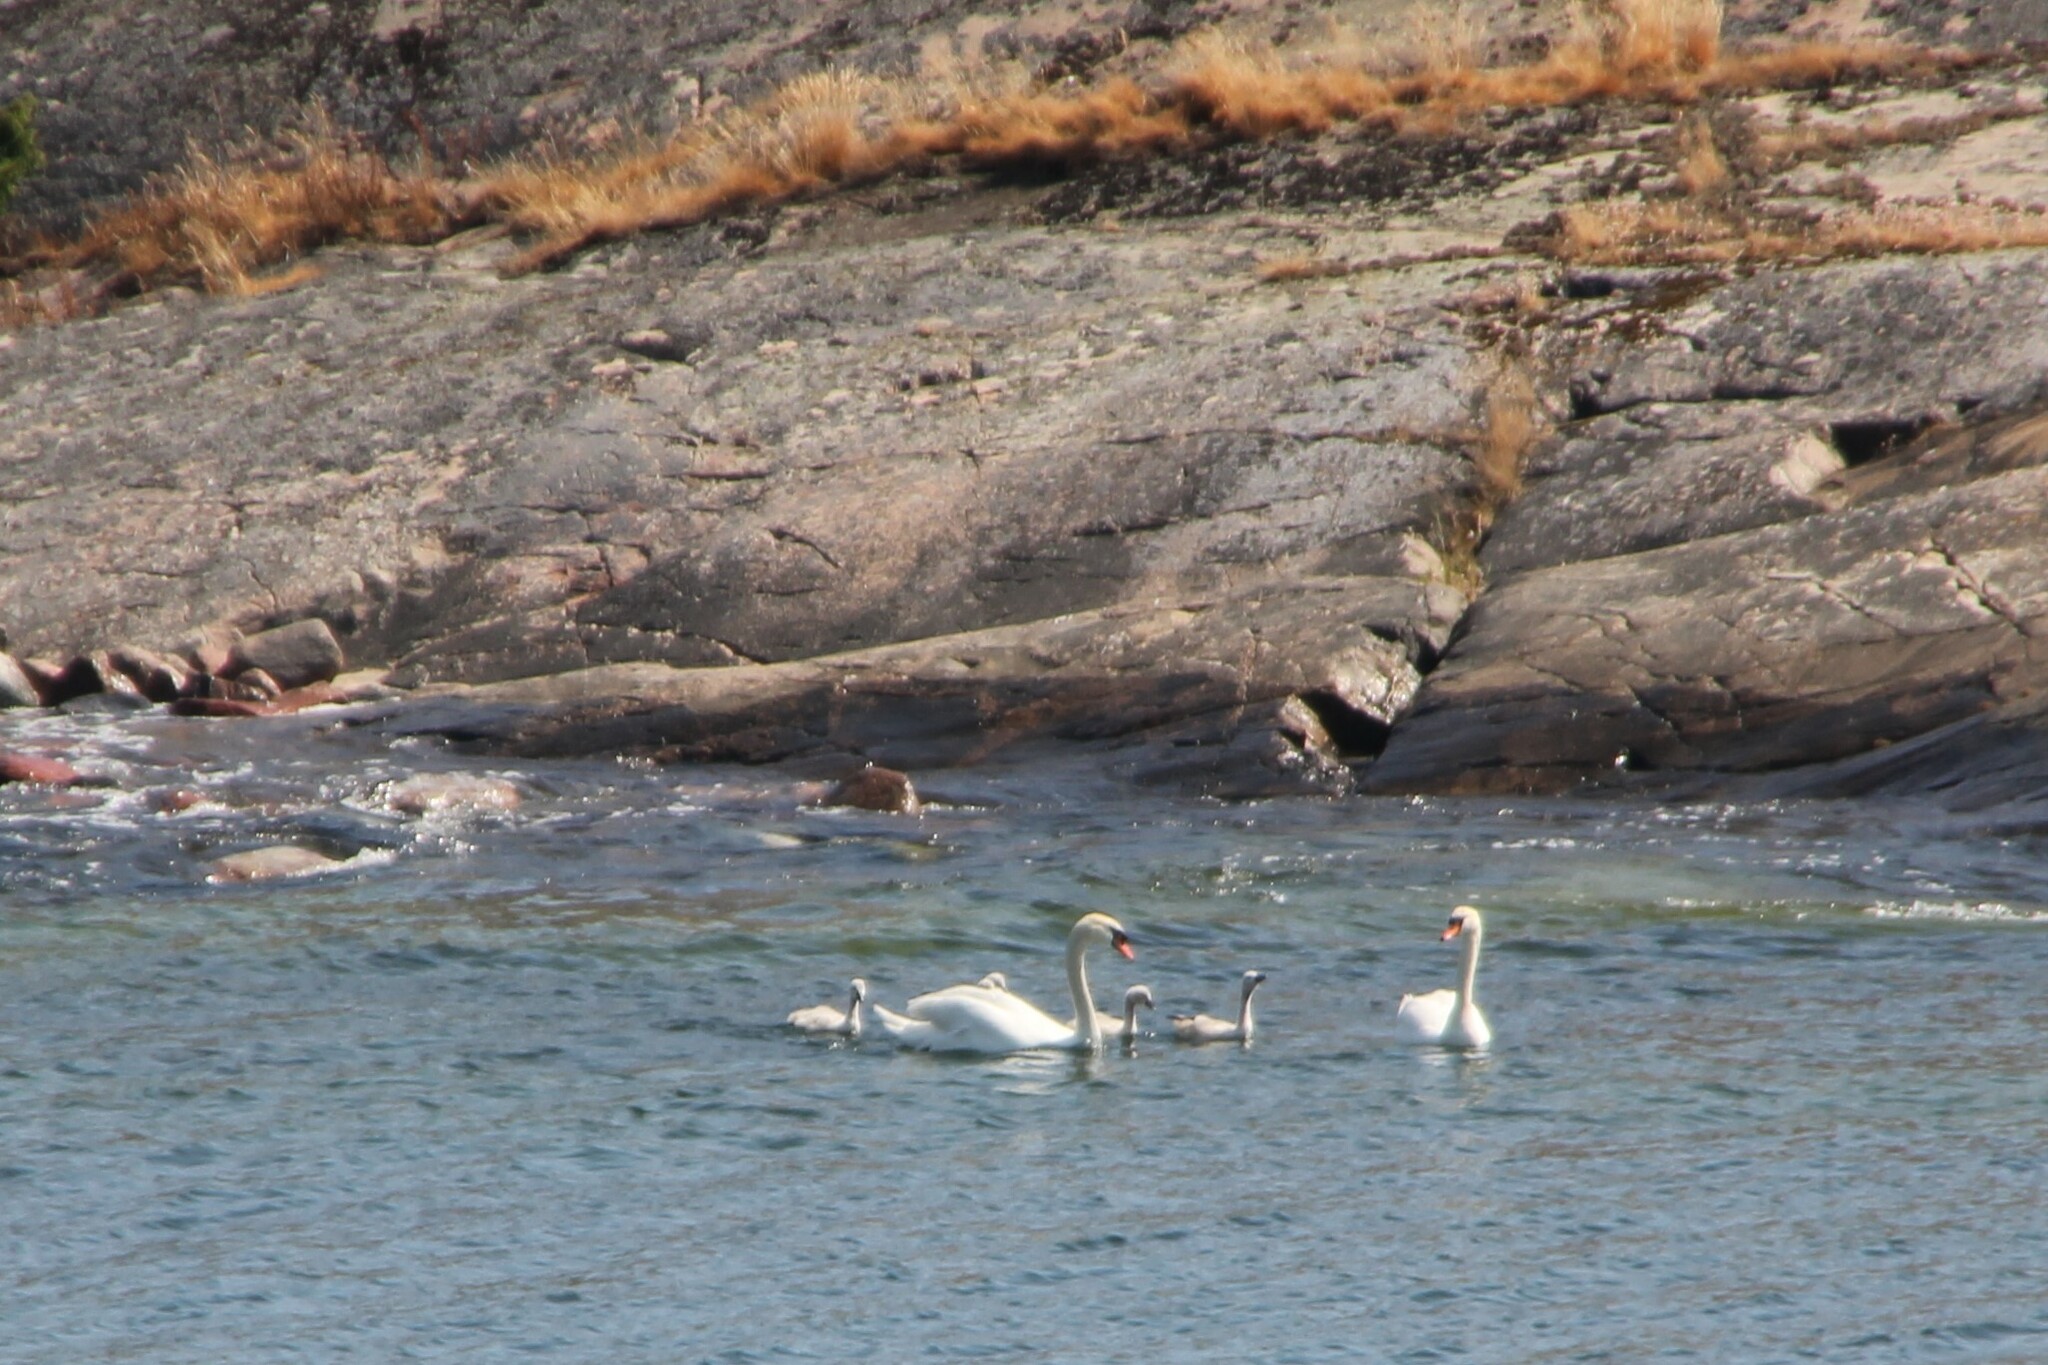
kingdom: Animalia
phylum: Chordata
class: Aves
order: Anseriformes
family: Anatidae
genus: Cygnus
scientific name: Cygnus olor
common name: Mute swan
